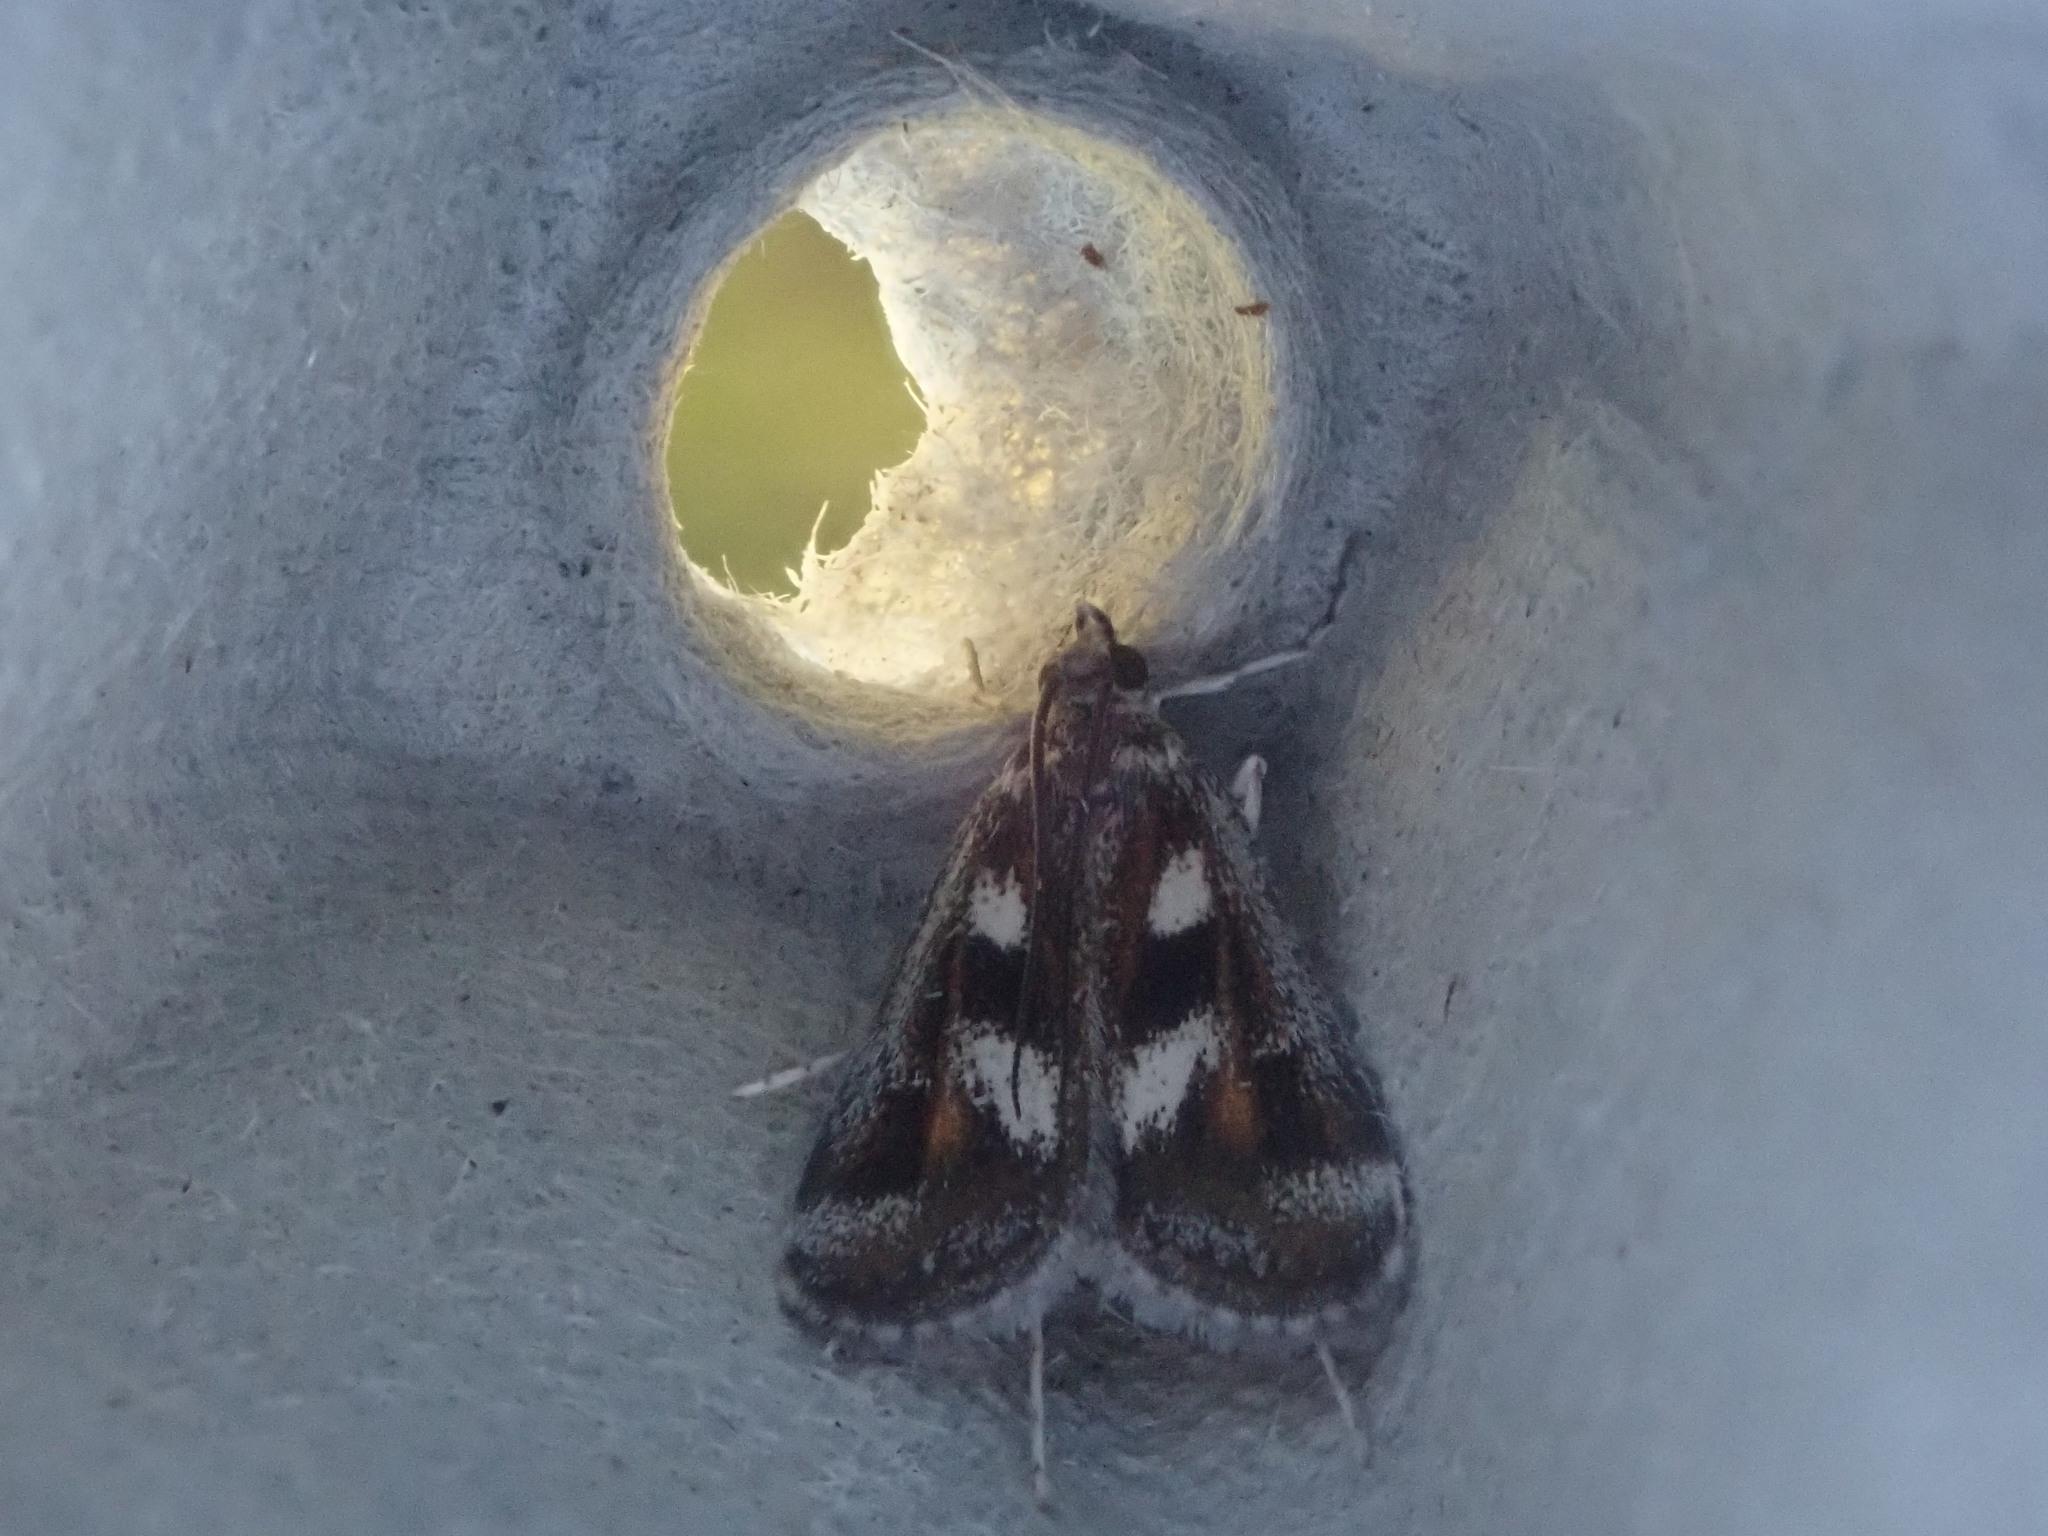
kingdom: Animalia
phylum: Arthropoda
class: Insecta
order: Lepidoptera
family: Crambidae
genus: Parapoynx
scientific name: Parapoynx maculalis
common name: Polymorphic pondweed moth
